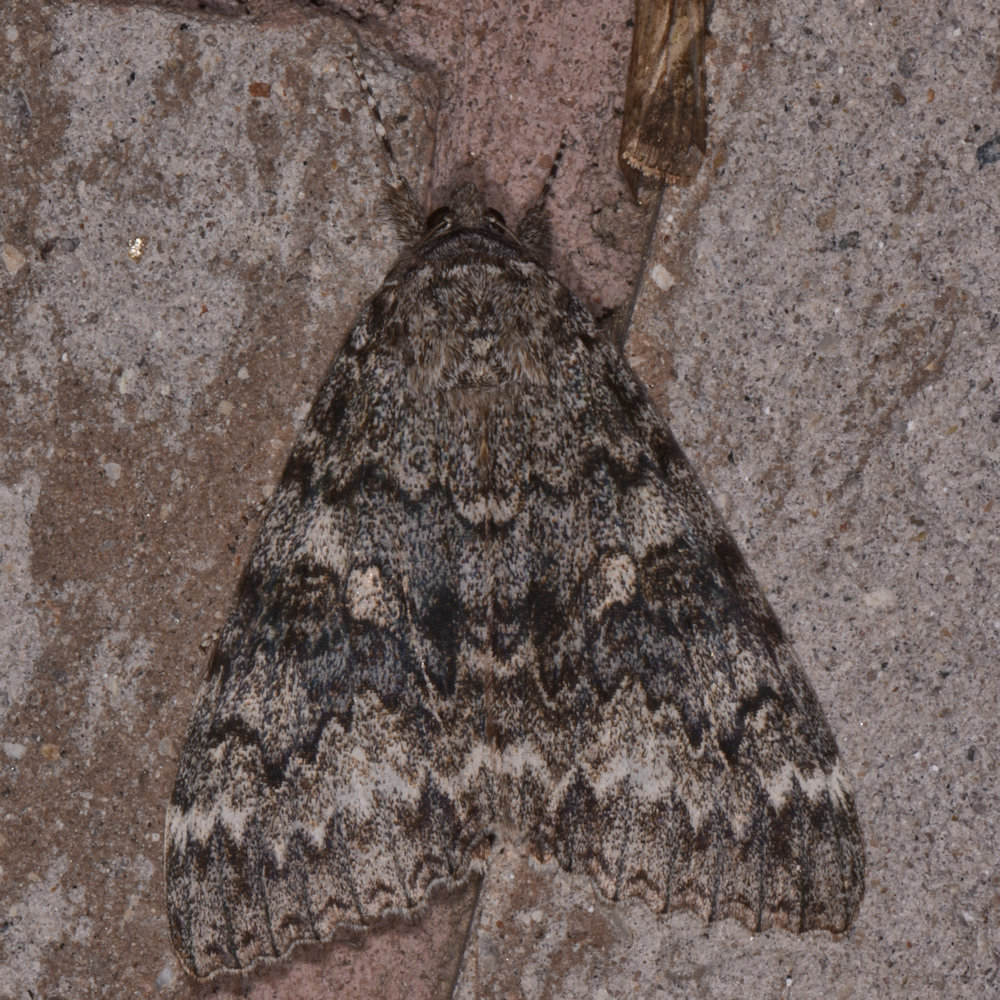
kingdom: Animalia
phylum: Arthropoda
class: Insecta
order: Lepidoptera
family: Erebidae
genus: Catocala
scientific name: Catocala unijuga
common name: Once-married underwing
